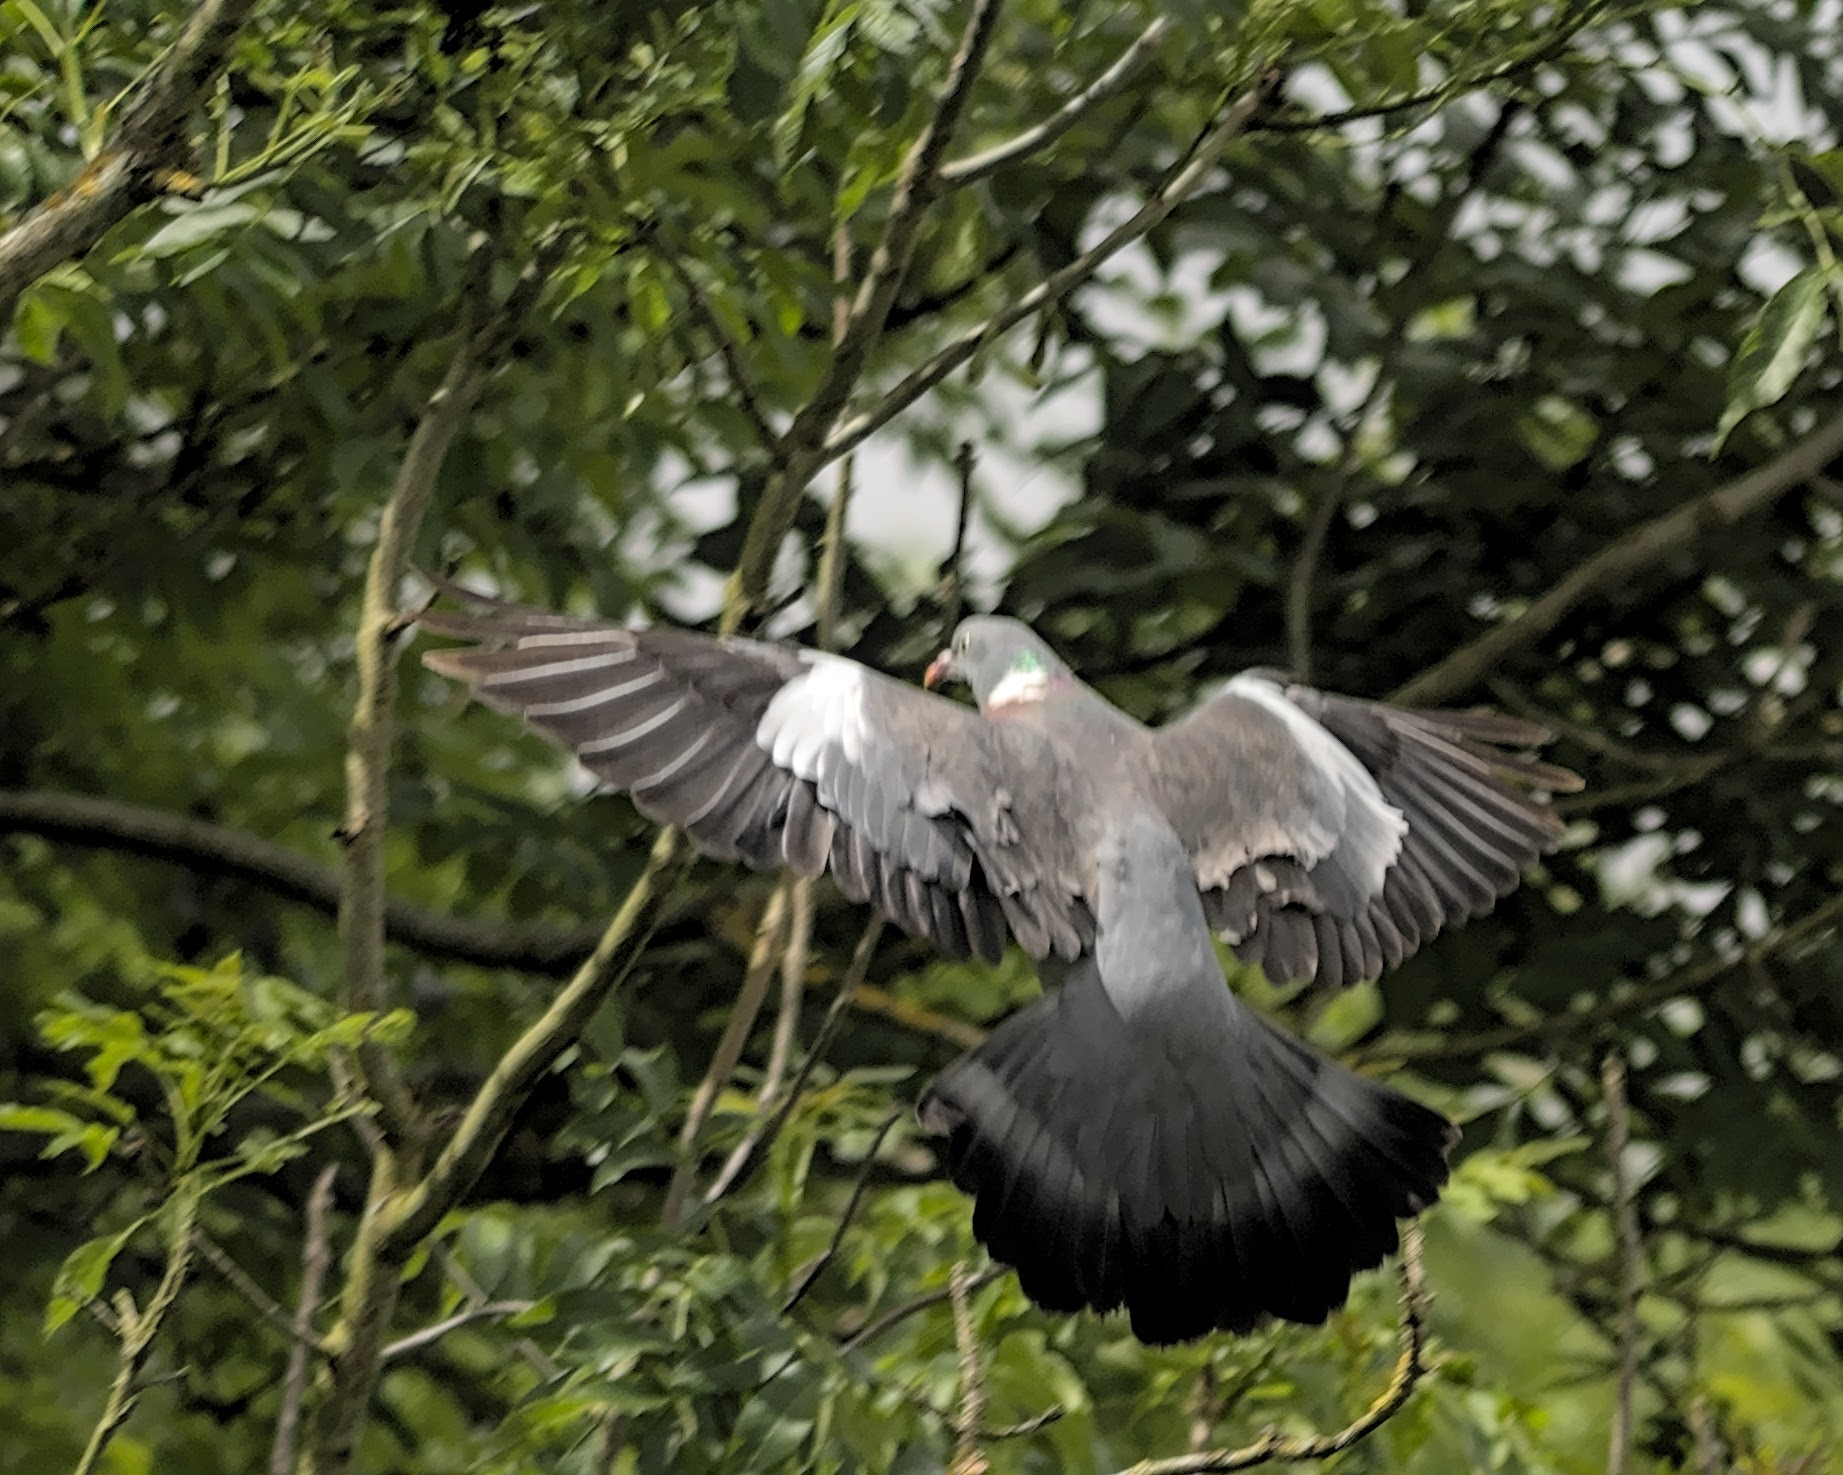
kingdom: Animalia
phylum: Chordata
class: Aves
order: Columbiformes
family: Columbidae
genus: Columba
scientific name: Columba palumbus
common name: Common wood pigeon
